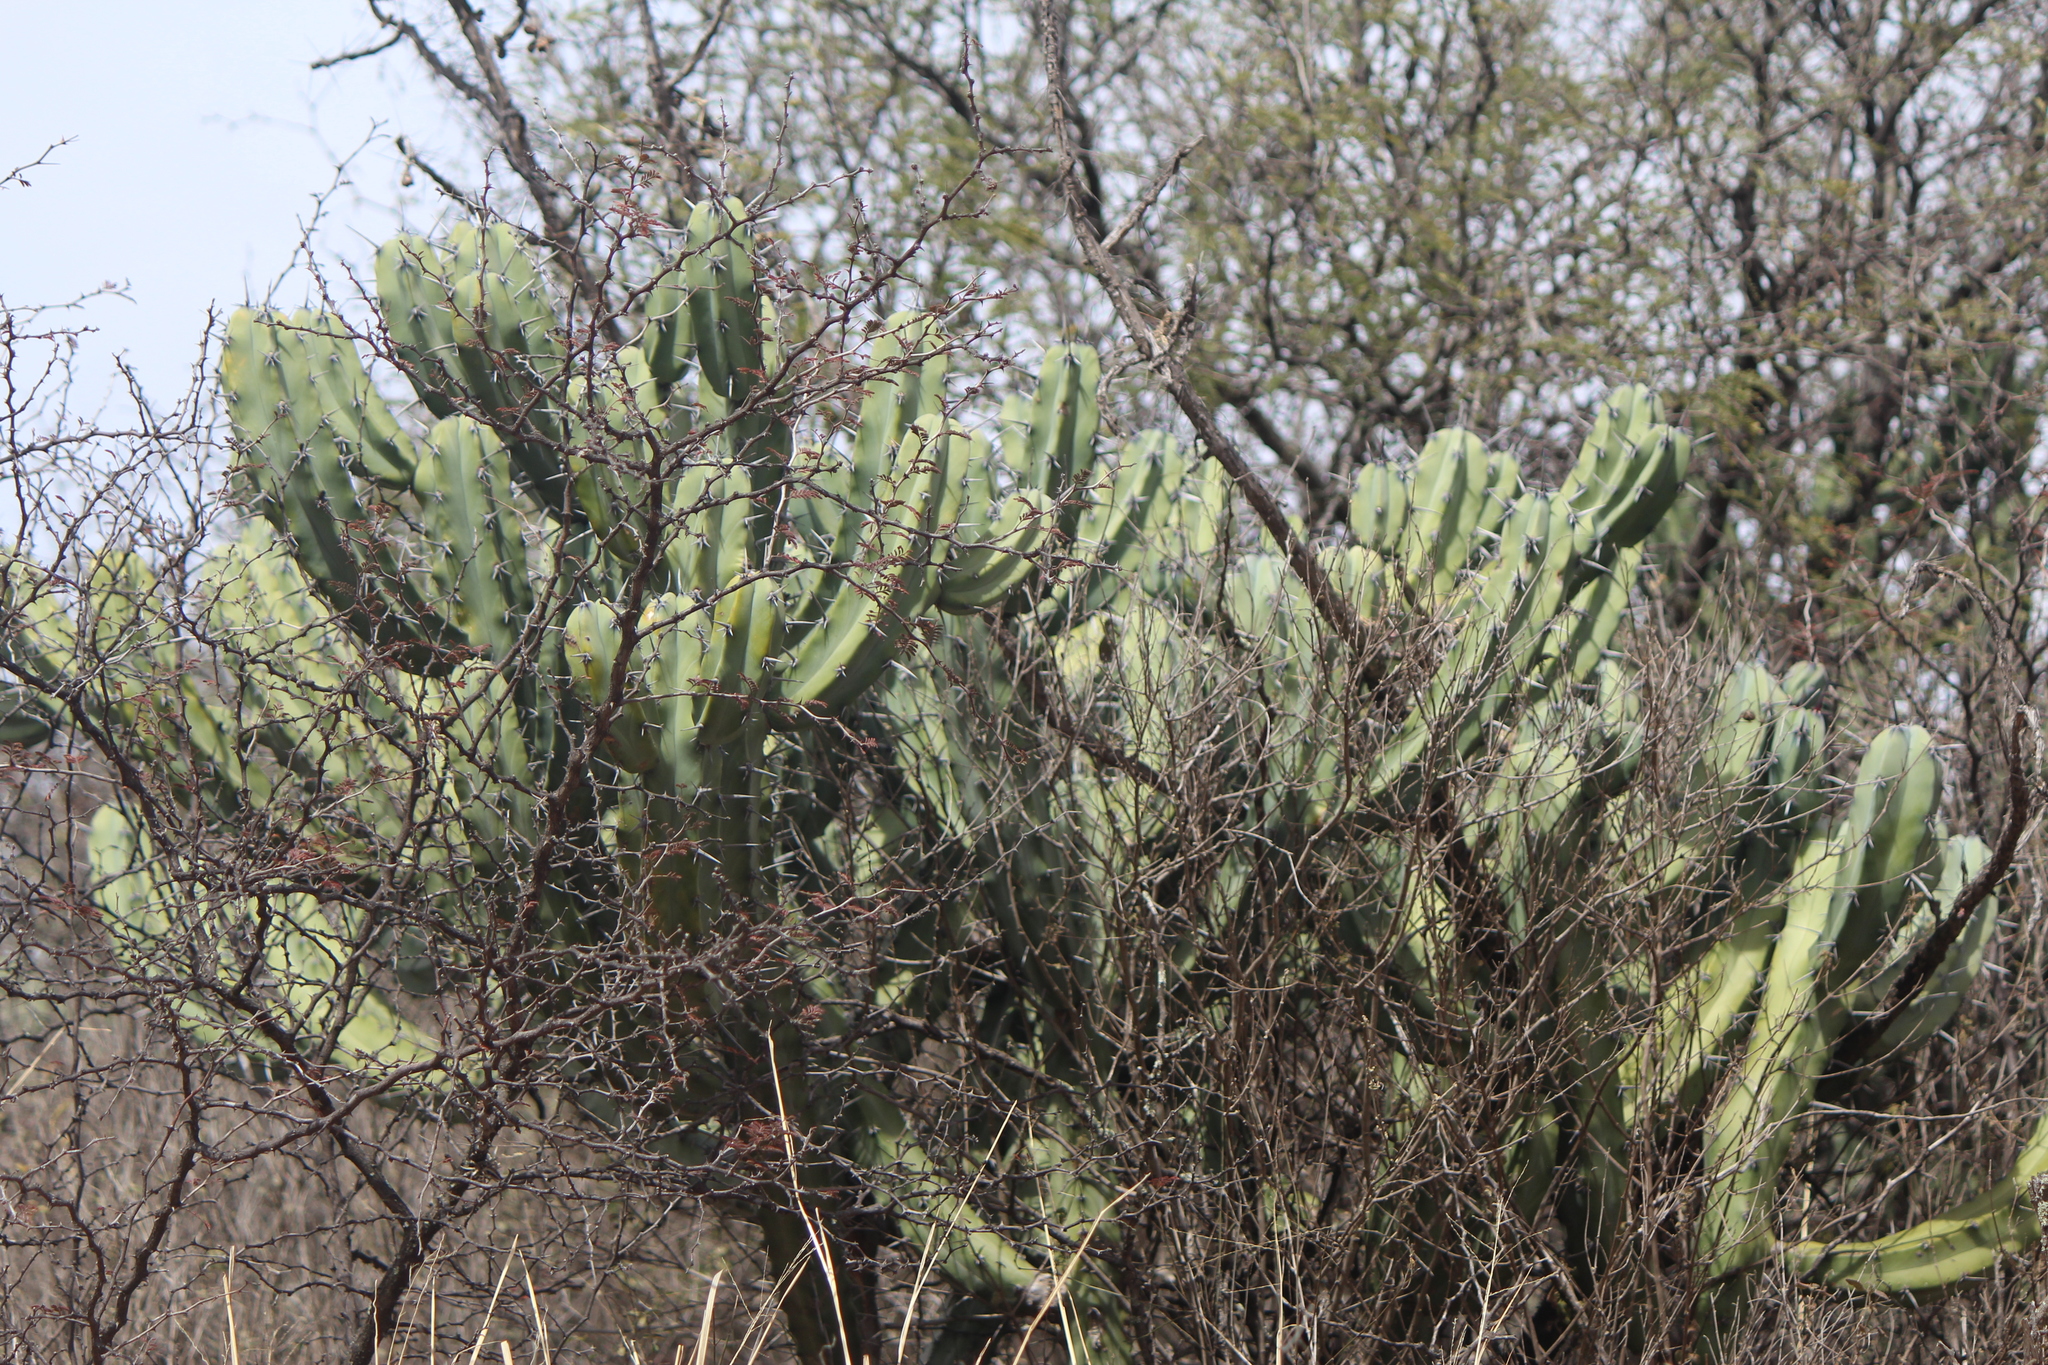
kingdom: Plantae
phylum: Tracheophyta
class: Magnoliopsida
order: Caryophyllales
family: Cactaceae
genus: Myrtillocactus
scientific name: Myrtillocactus geometrizans
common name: Bilberry cactus
